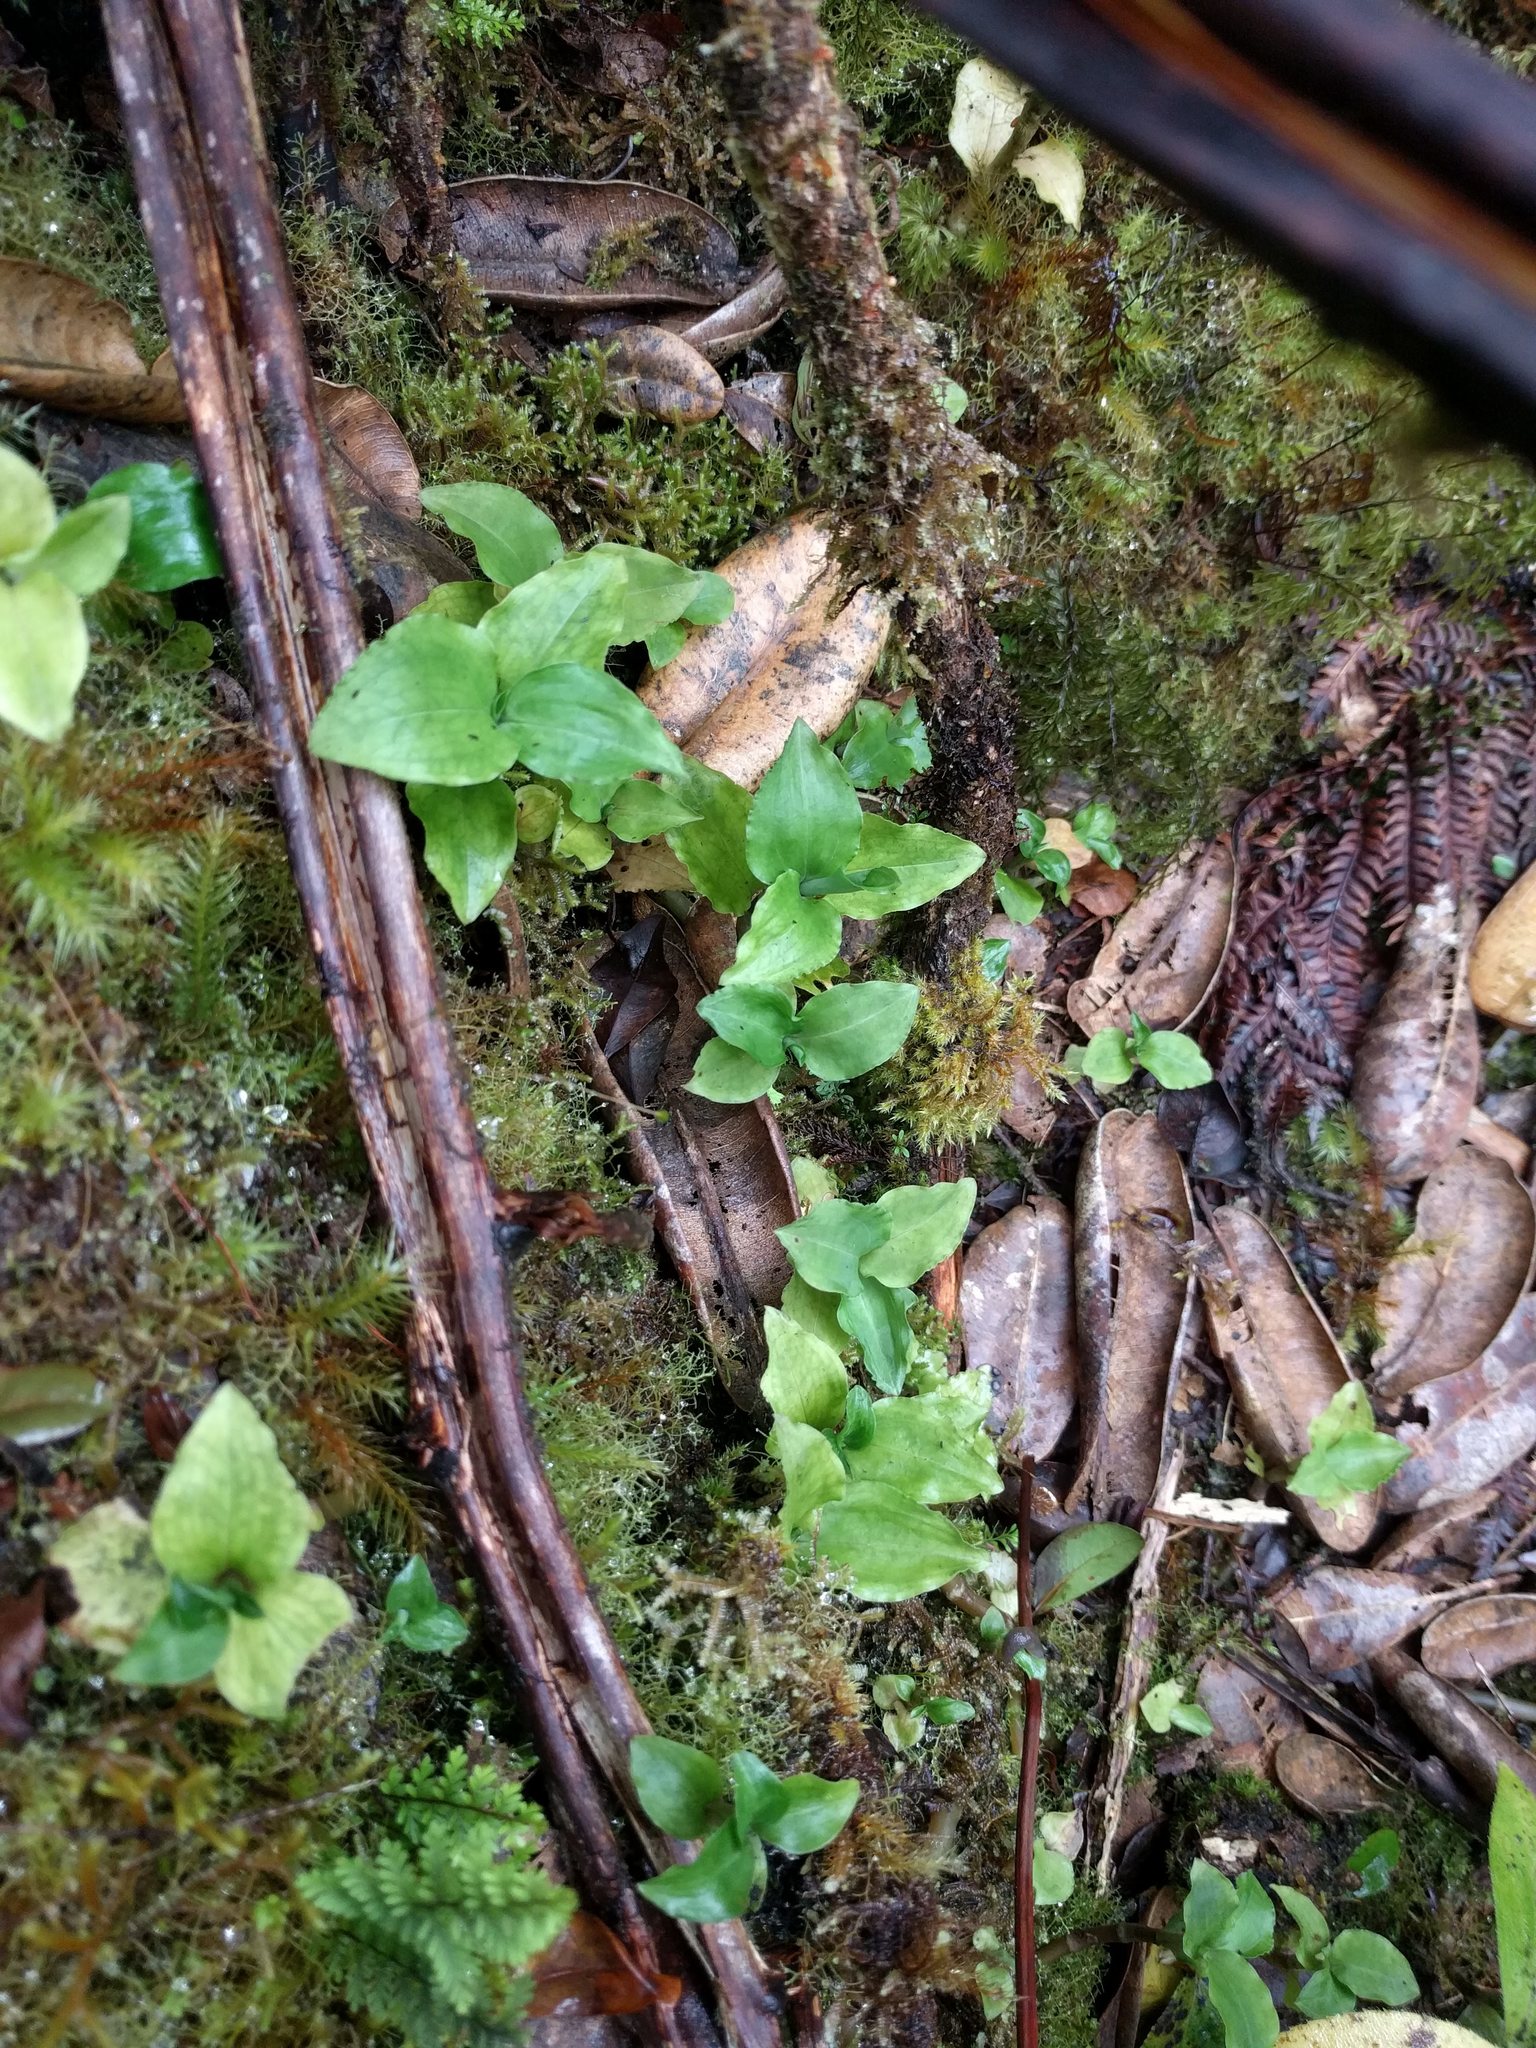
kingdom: Plantae
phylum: Tracheophyta
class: Liliopsida
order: Asparagales
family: Orchidaceae
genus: Anoectochilus
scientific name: Anoectochilus sandvicensis
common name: Hawaii jewel-orchid
